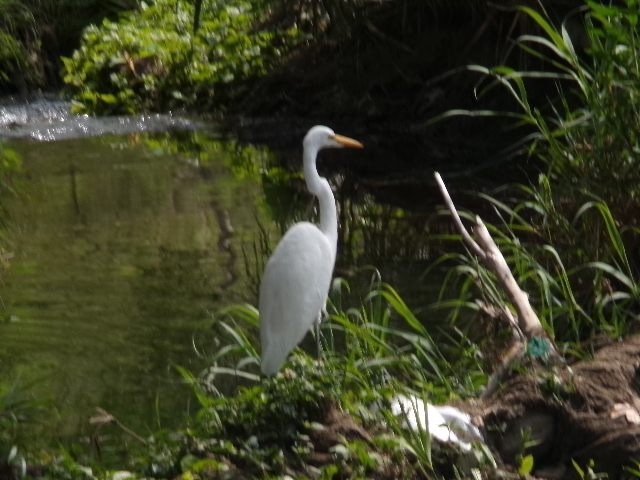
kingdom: Animalia
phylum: Chordata
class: Aves
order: Pelecaniformes
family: Ardeidae
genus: Ardea
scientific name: Ardea alba
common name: Great egret
